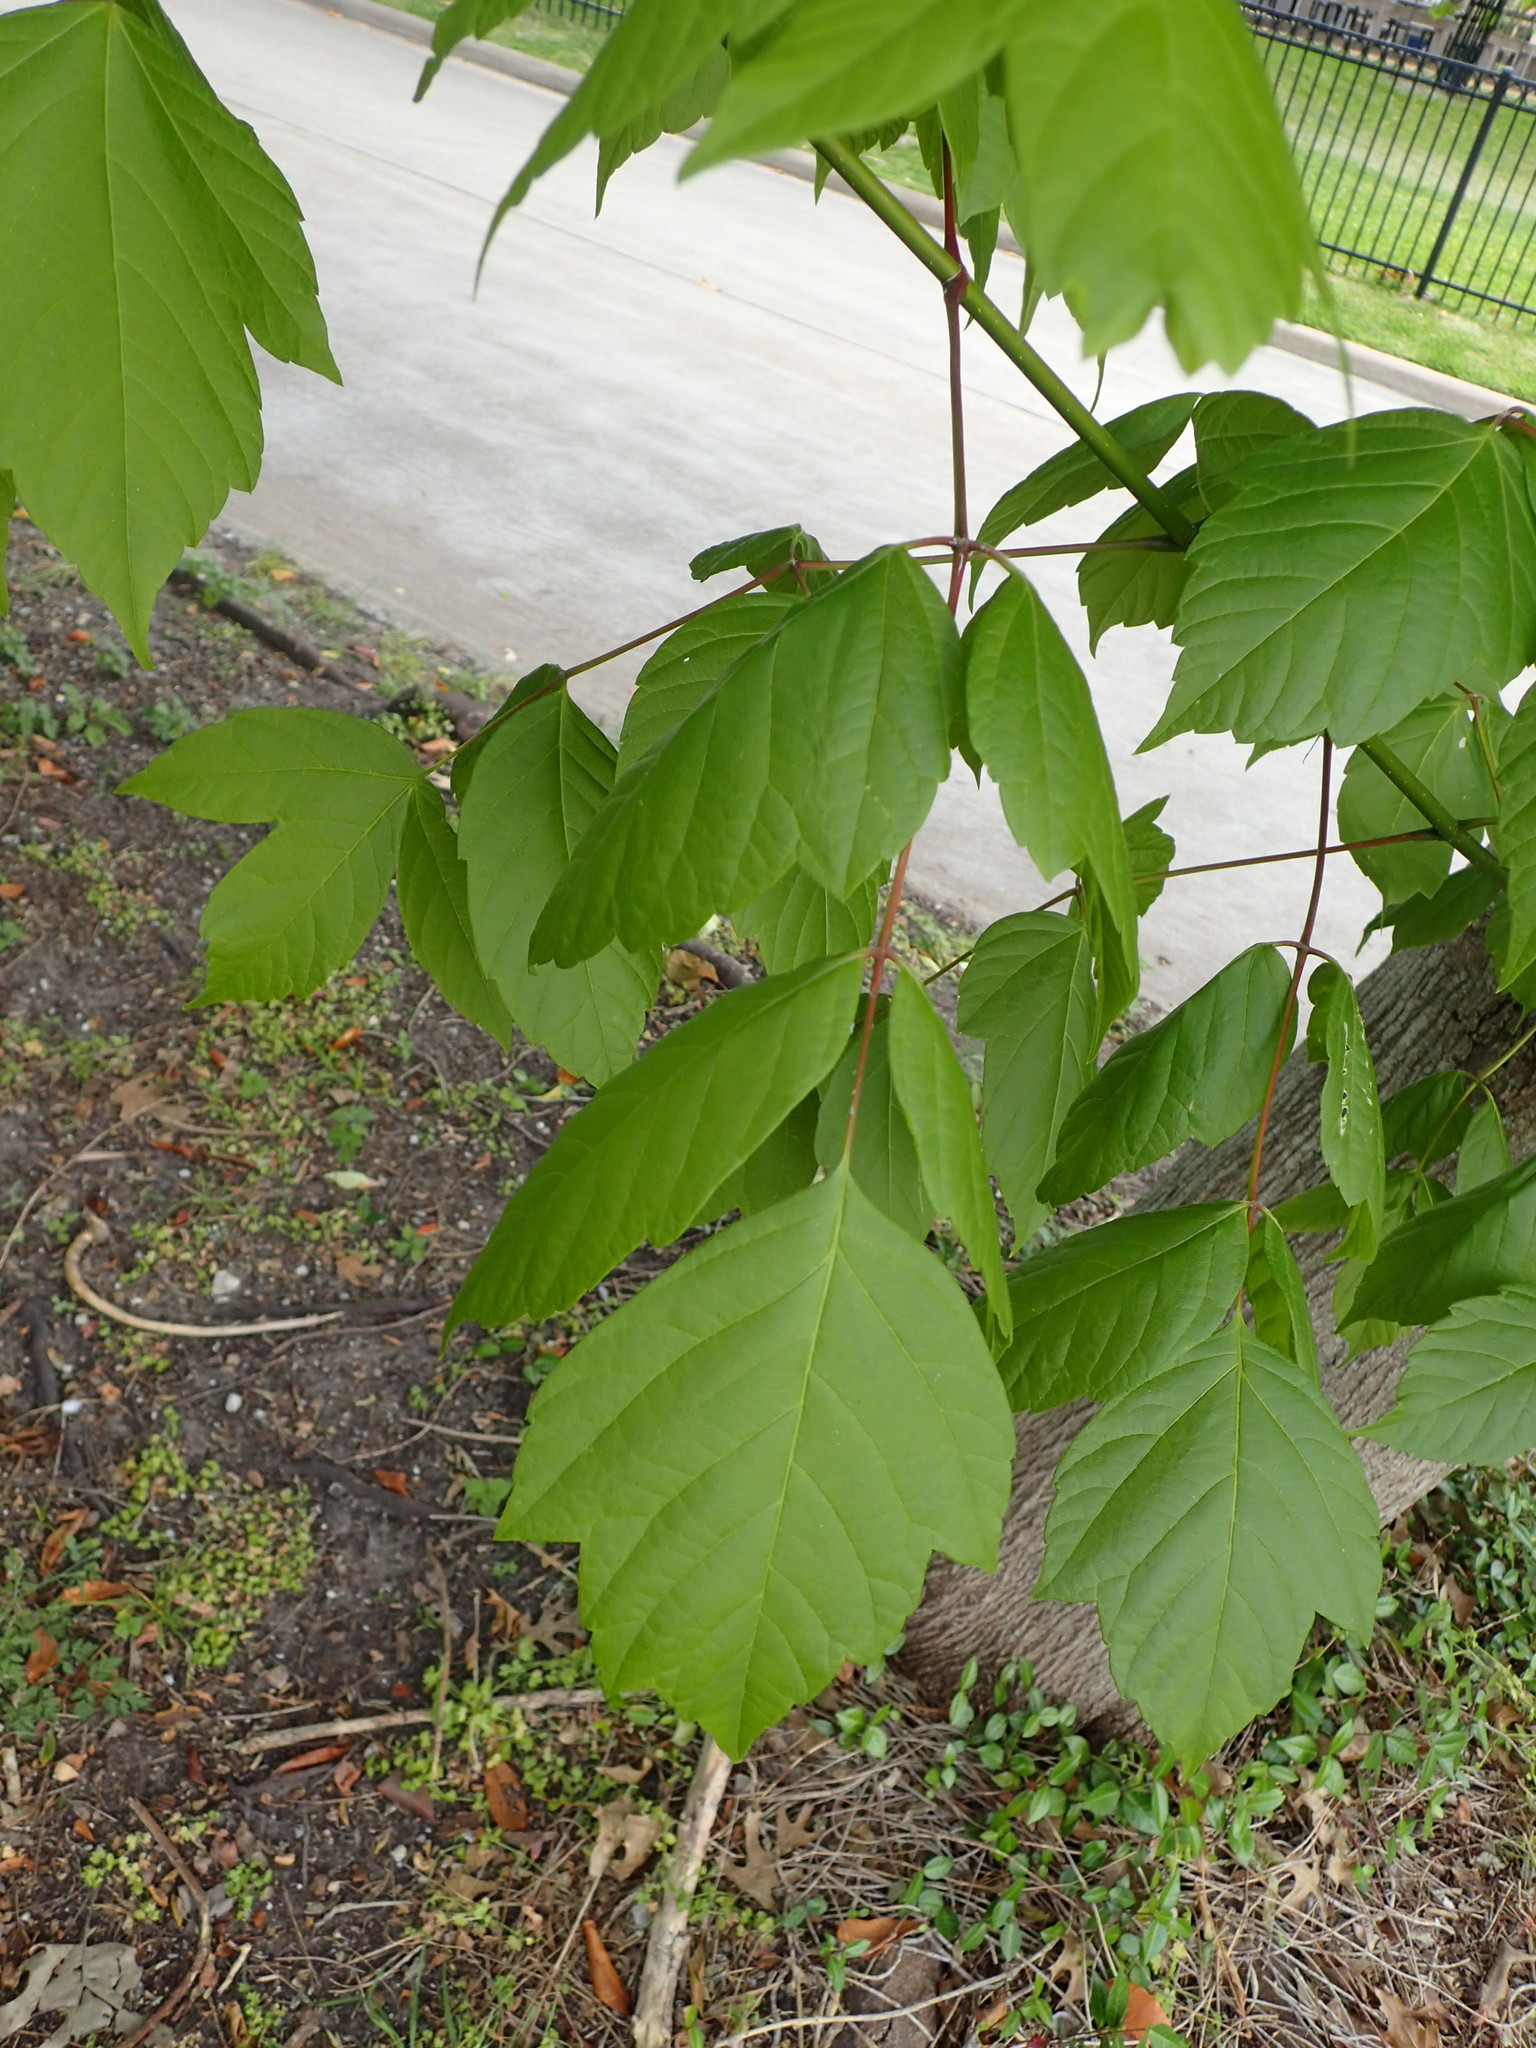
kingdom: Plantae
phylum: Tracheophyta
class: Magnoliopsida
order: Sapindales
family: Sapindaceae
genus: Acer
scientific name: Acer negundo
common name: Ashleaf maple
